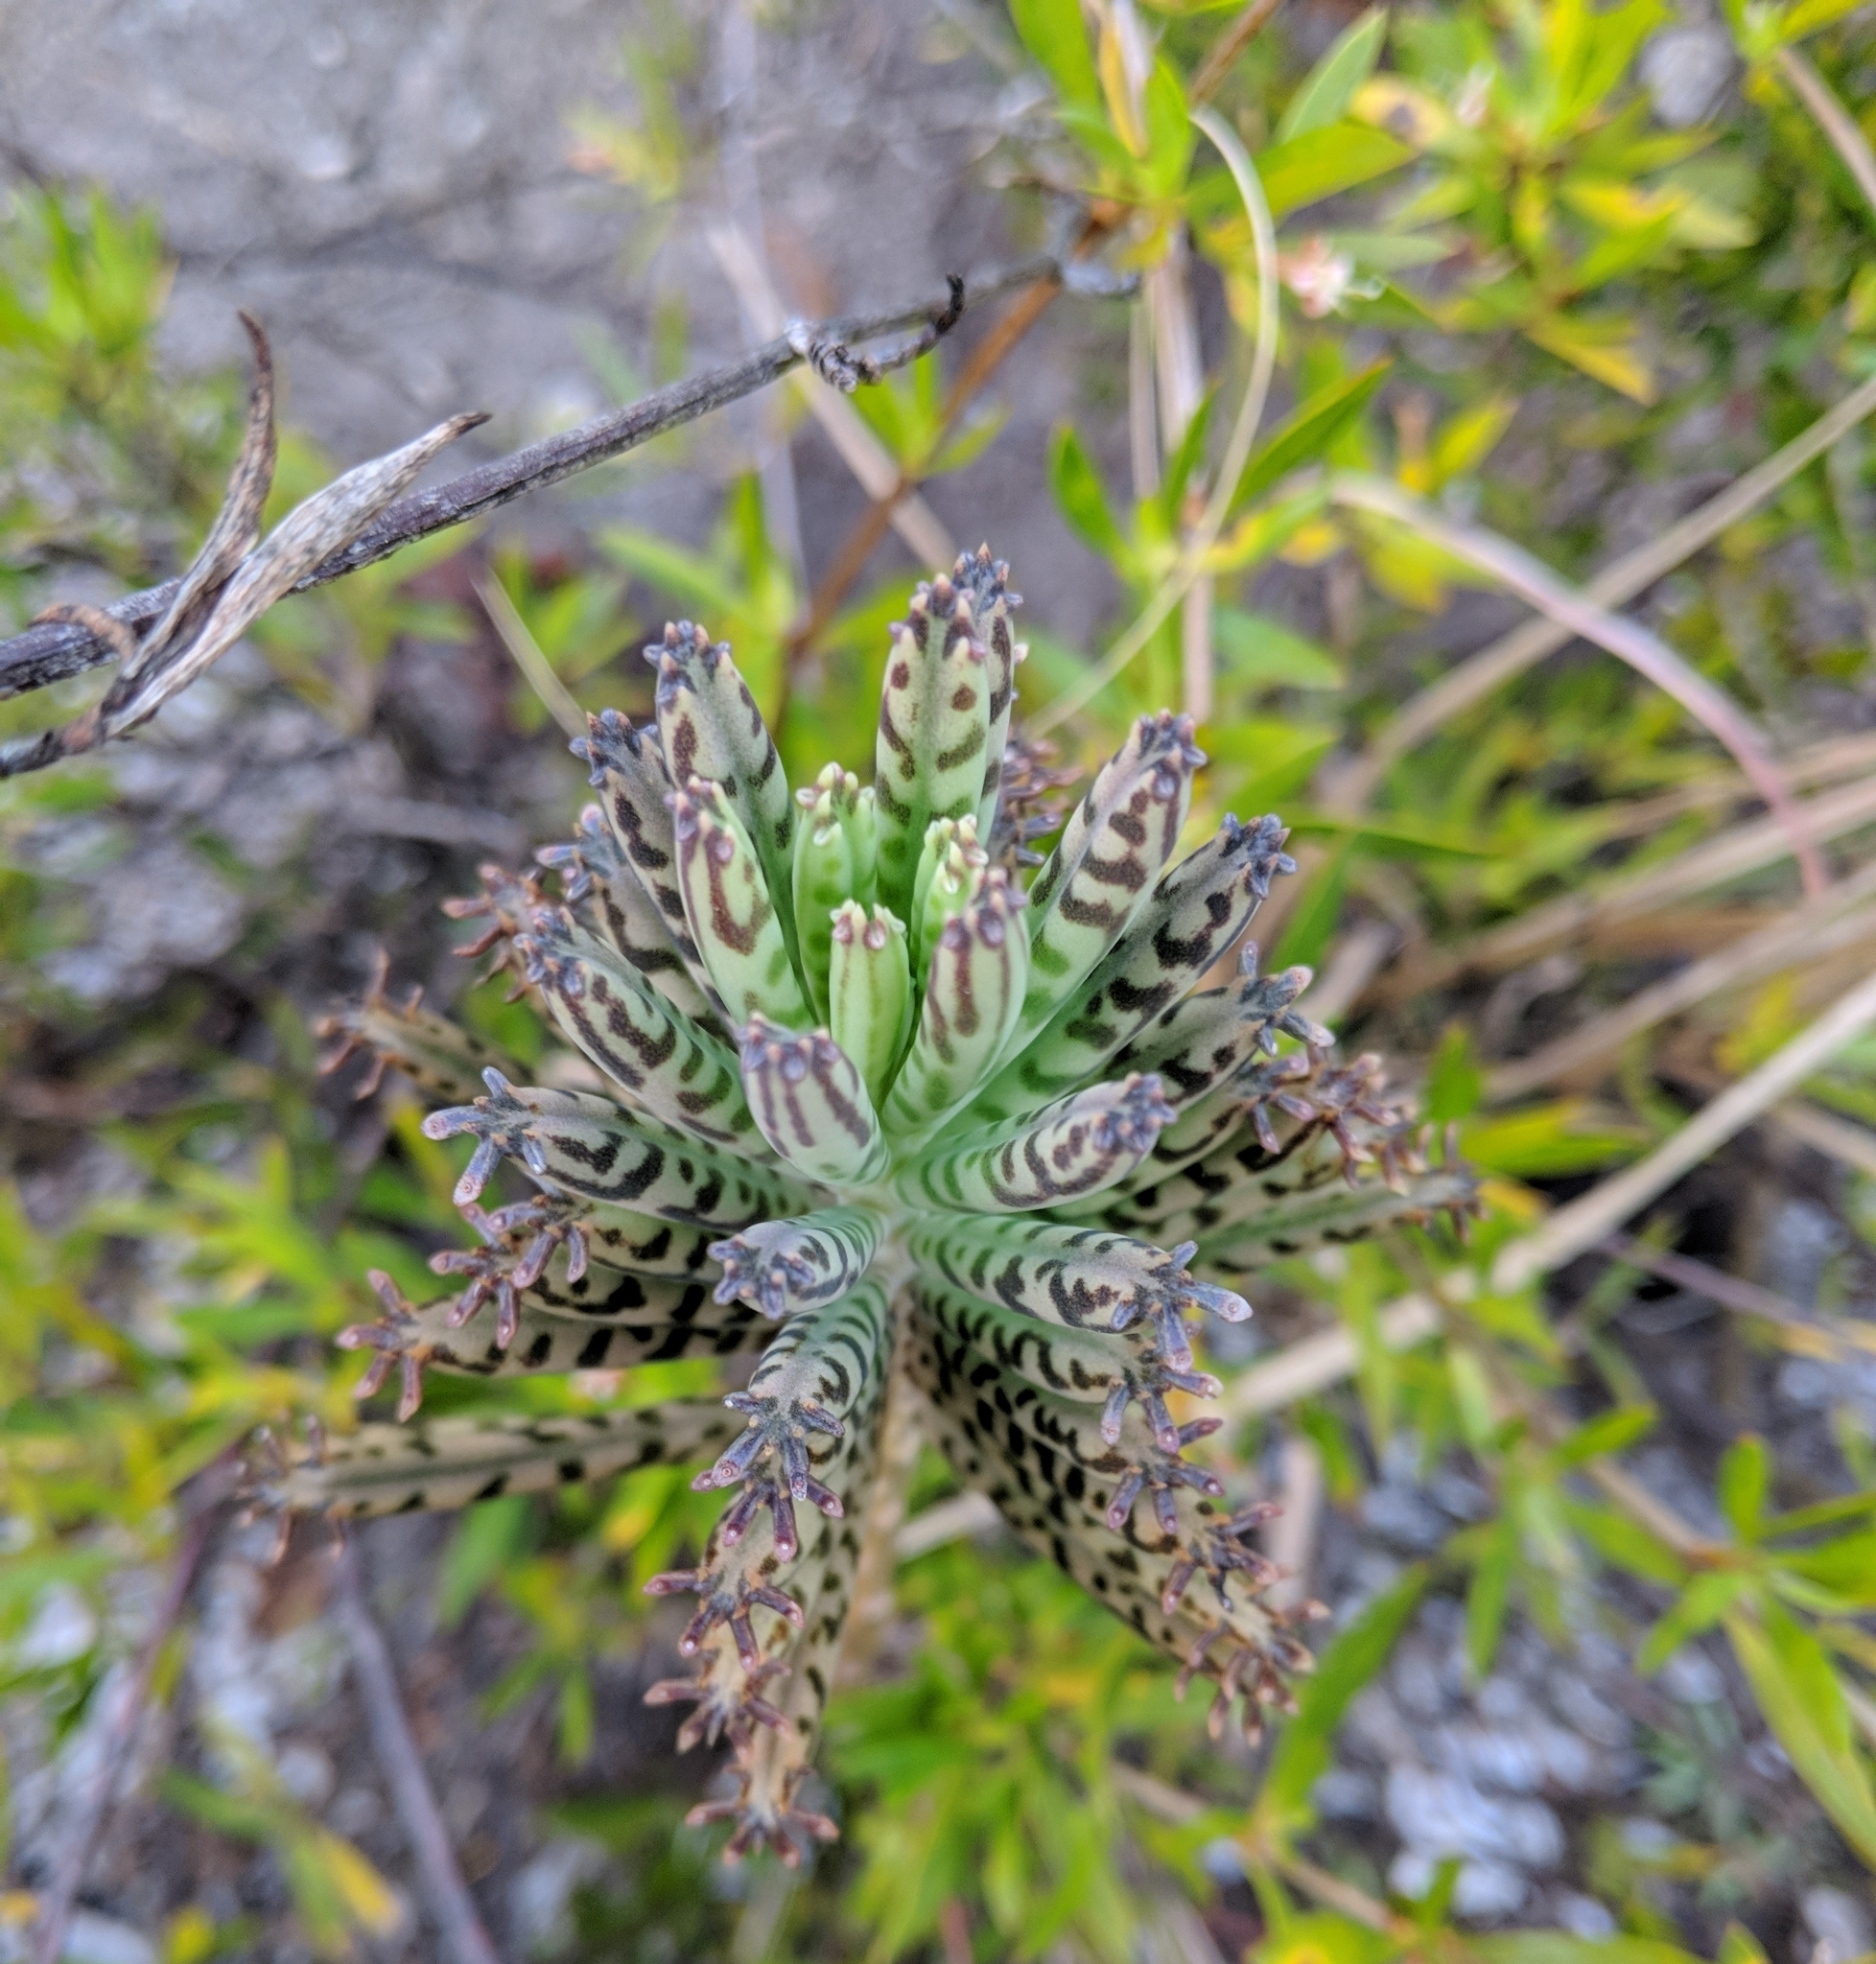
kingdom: Plantae
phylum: Tracheophyta
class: Magnoliopsida
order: Saxifragales
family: Crassulaceae
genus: Kalanchoe
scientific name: Kalanchoe delagoensis
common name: Chandelier plant
